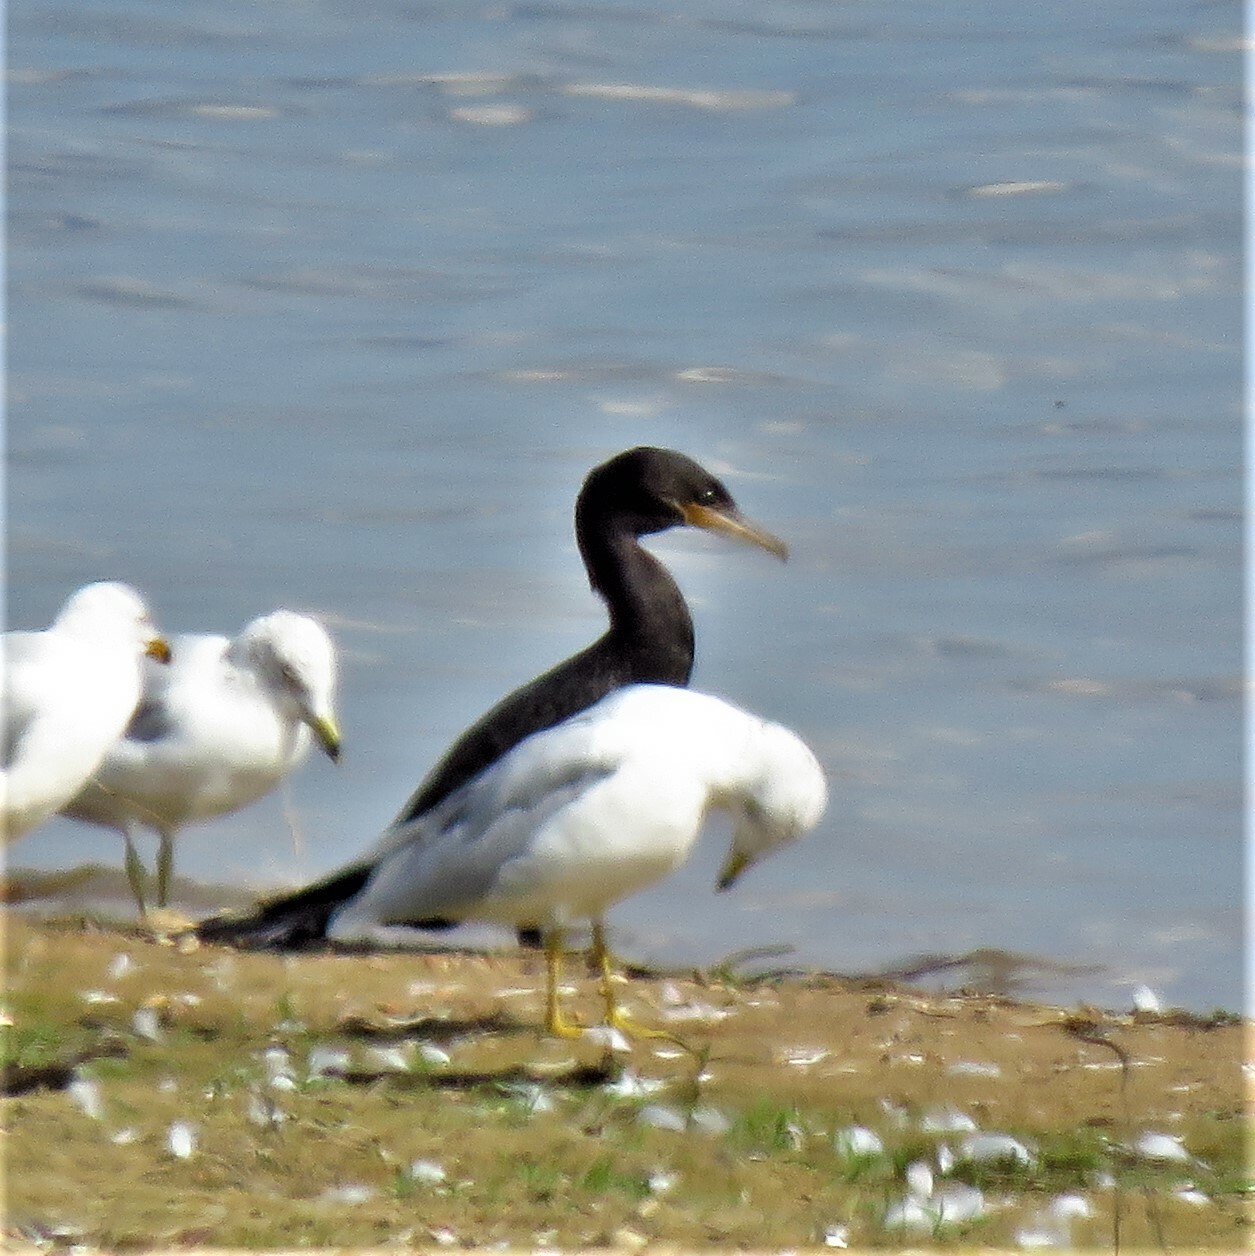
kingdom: Animalia
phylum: Chordata
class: Aves
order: Suliformes
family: Phalacrocoracidae
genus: Phalacrocorax
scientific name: Phalacrocorax brasilianus
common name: Neotropic cormorant
